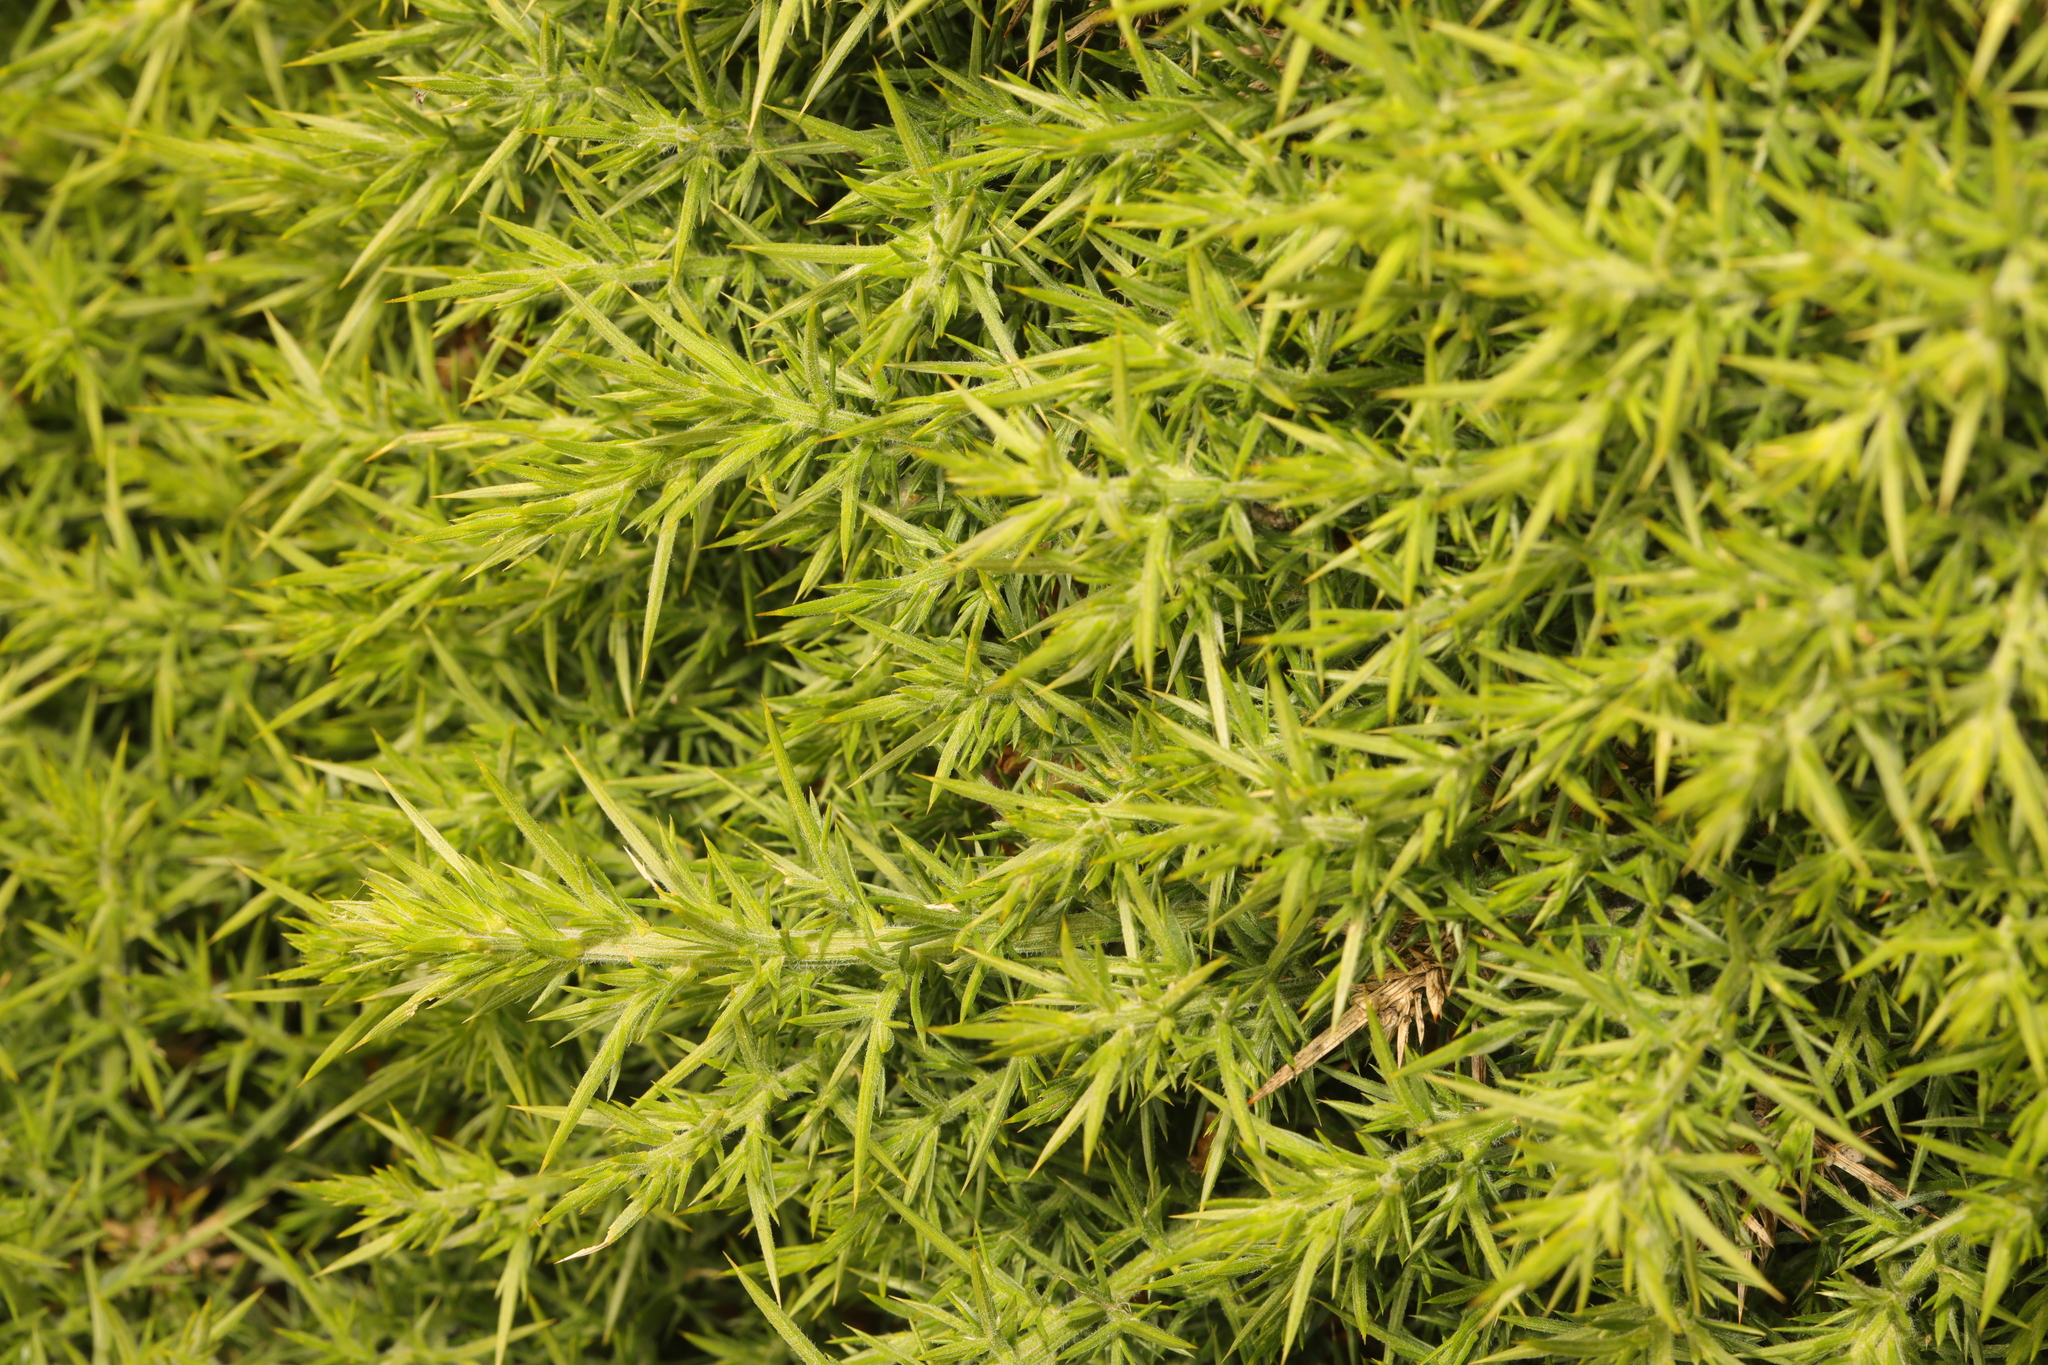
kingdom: Plantae
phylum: Tracheophyta
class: Magnoliopsida
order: Fabales
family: Fabaceae
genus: Ulex
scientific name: Ulex europaeus
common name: Common gorse
